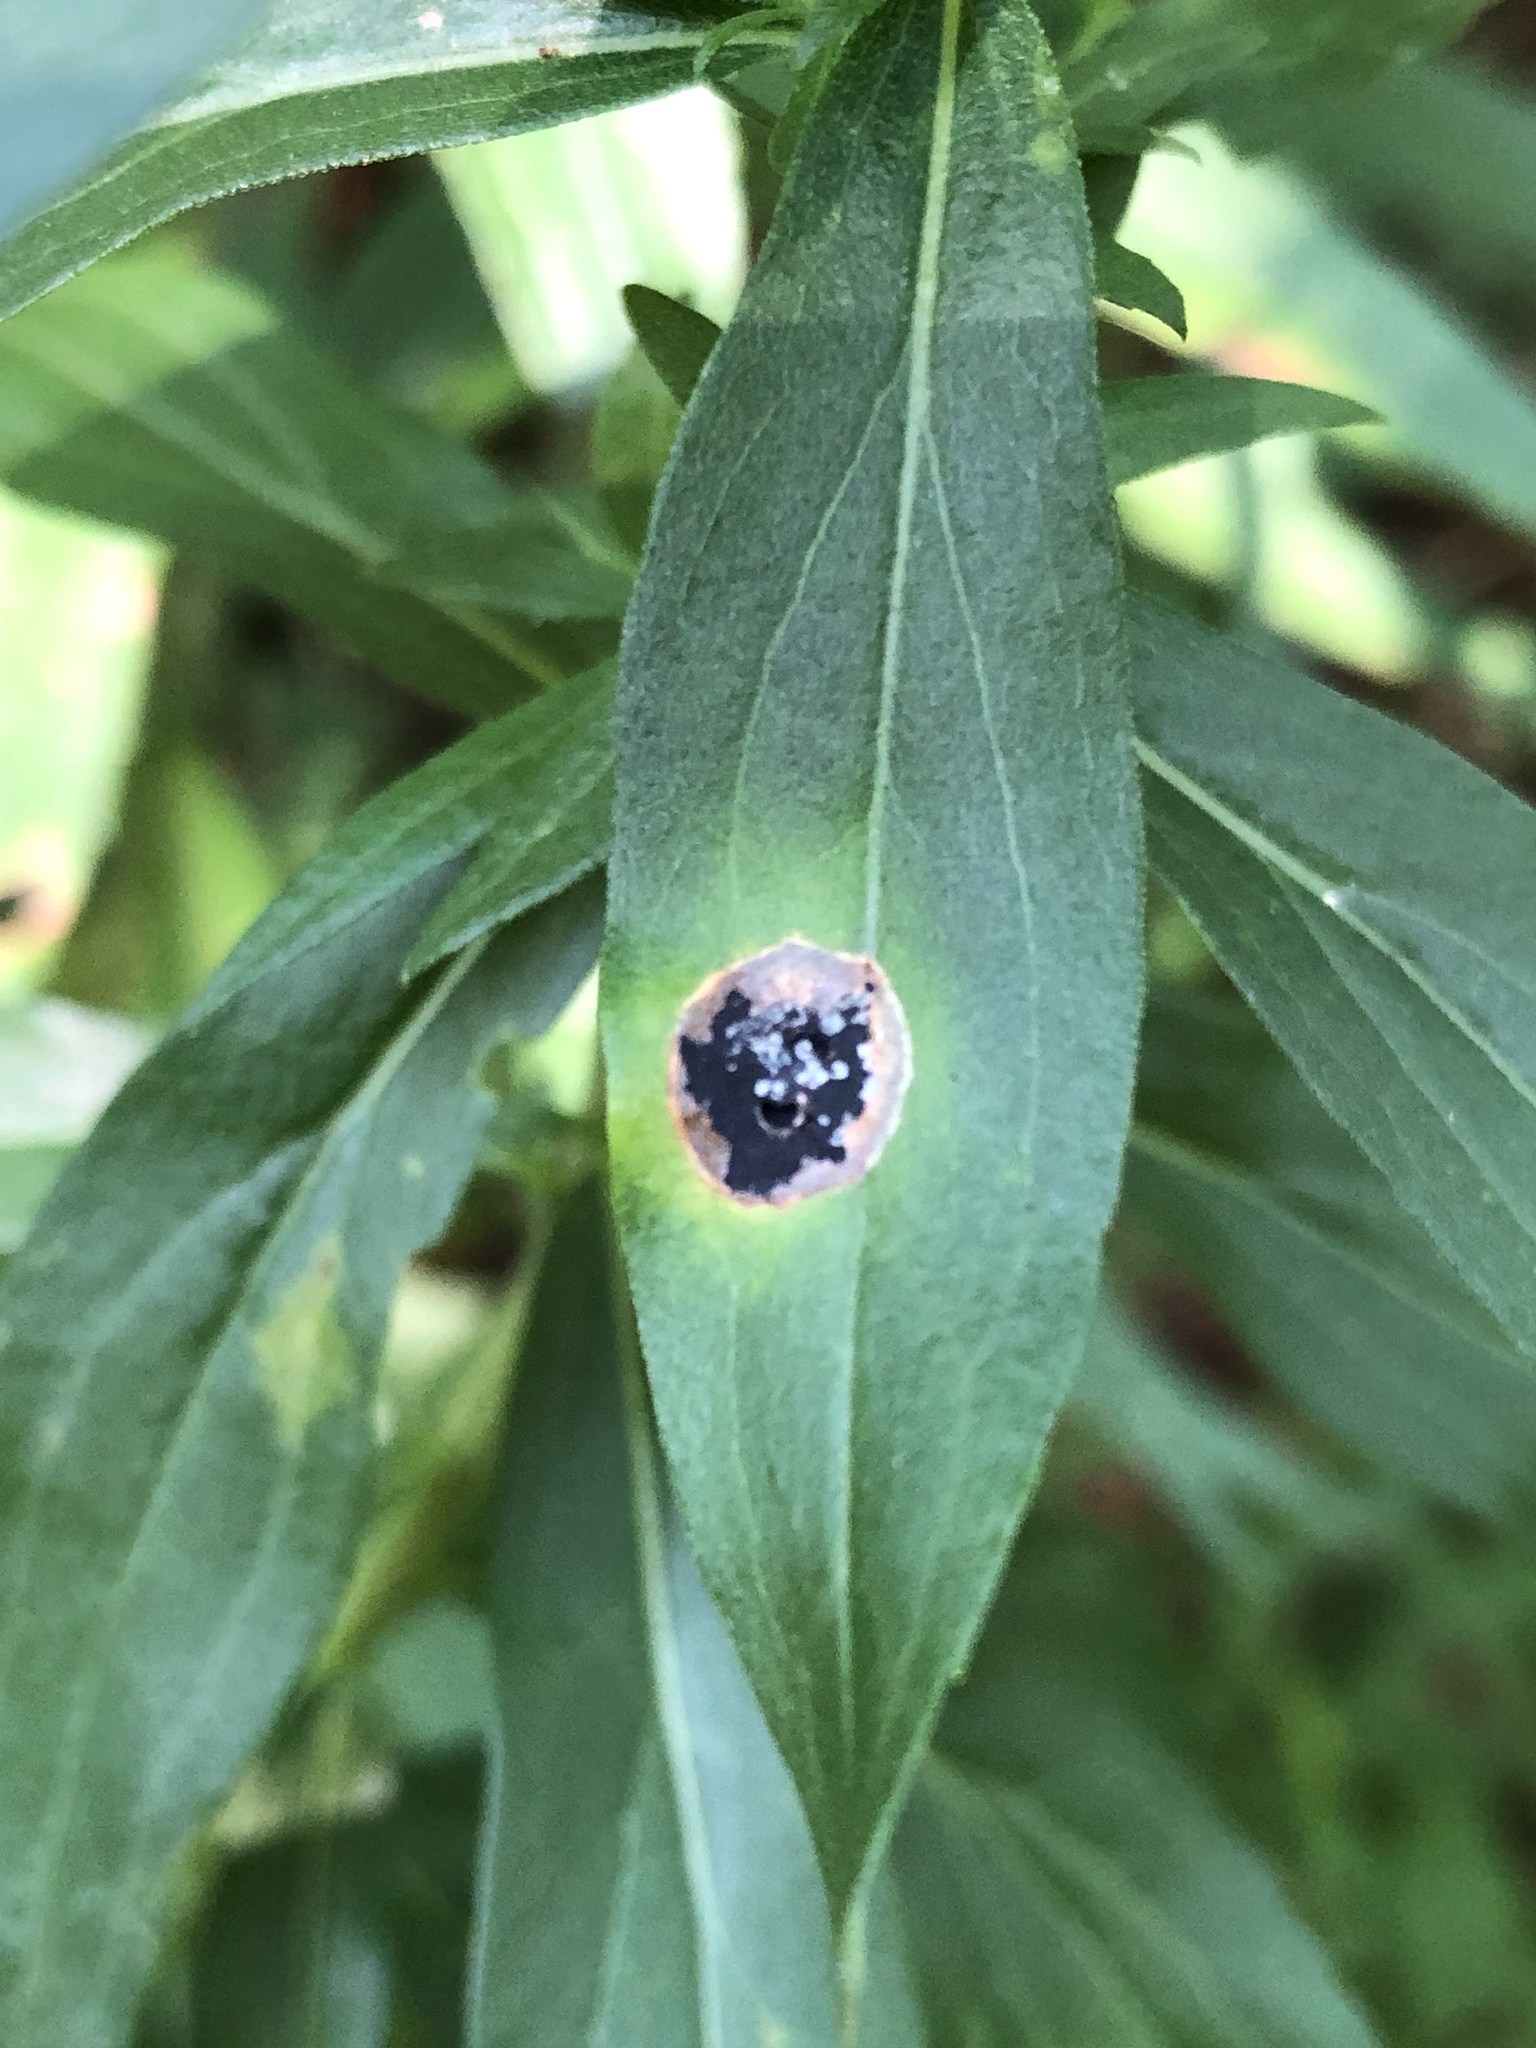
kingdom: Animalia
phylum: Arthropoda
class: Insecta
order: Diptera
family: Cecidomyiidae
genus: Asteromyia
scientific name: Asteromyia carbonifera
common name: Carbonifera goldenrod gall midge
